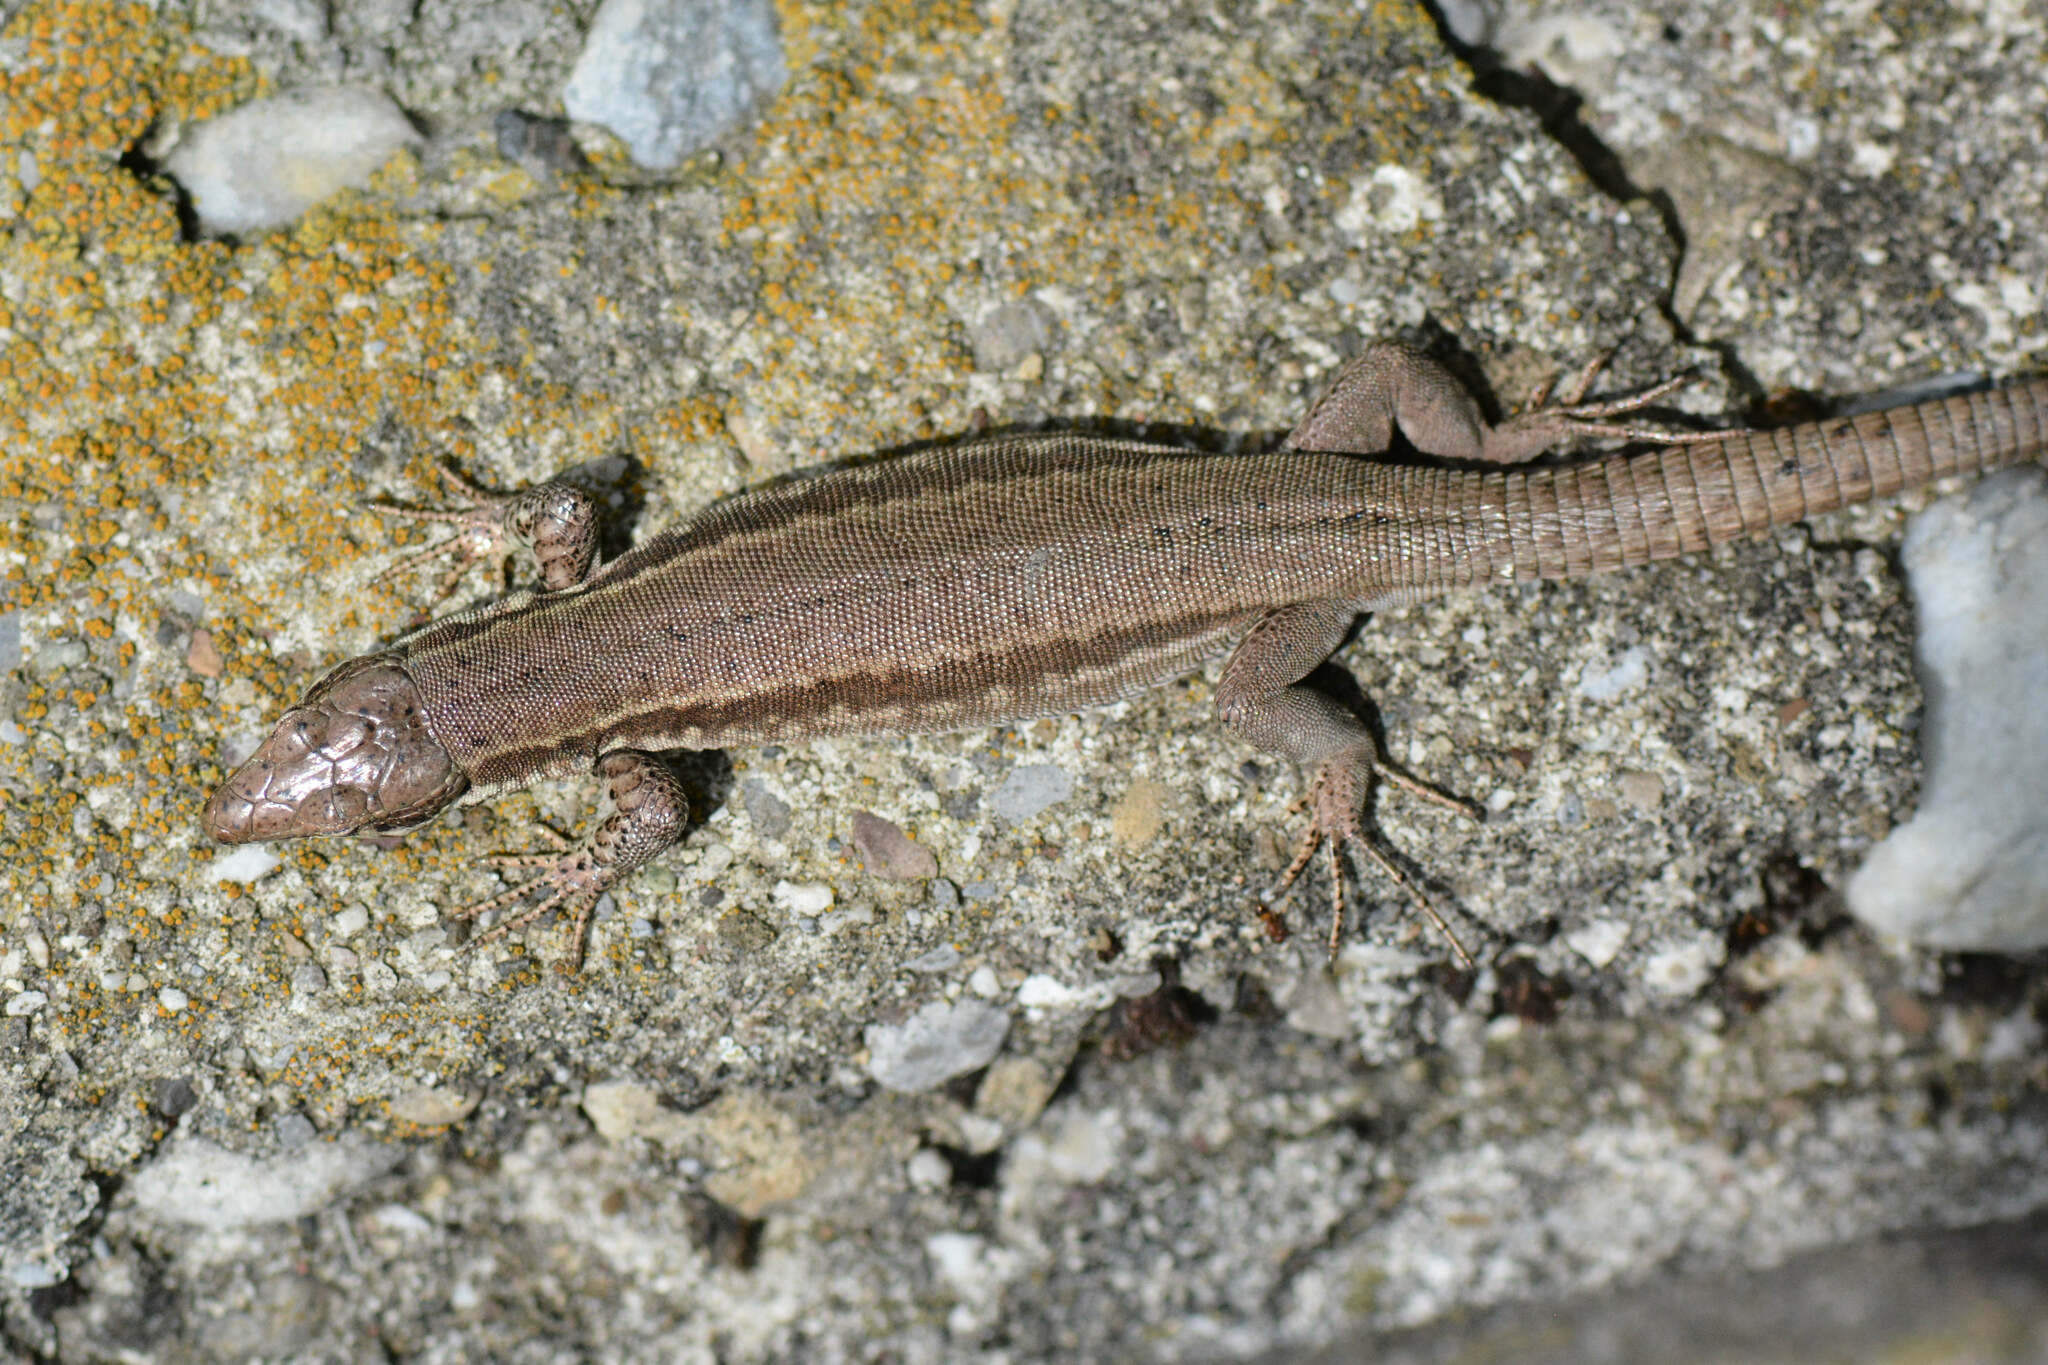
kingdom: Animalia
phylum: Chordata
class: Squamata
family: Lacertidae
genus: Podarcis
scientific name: Podarcis muralis
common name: Common wall lizard
